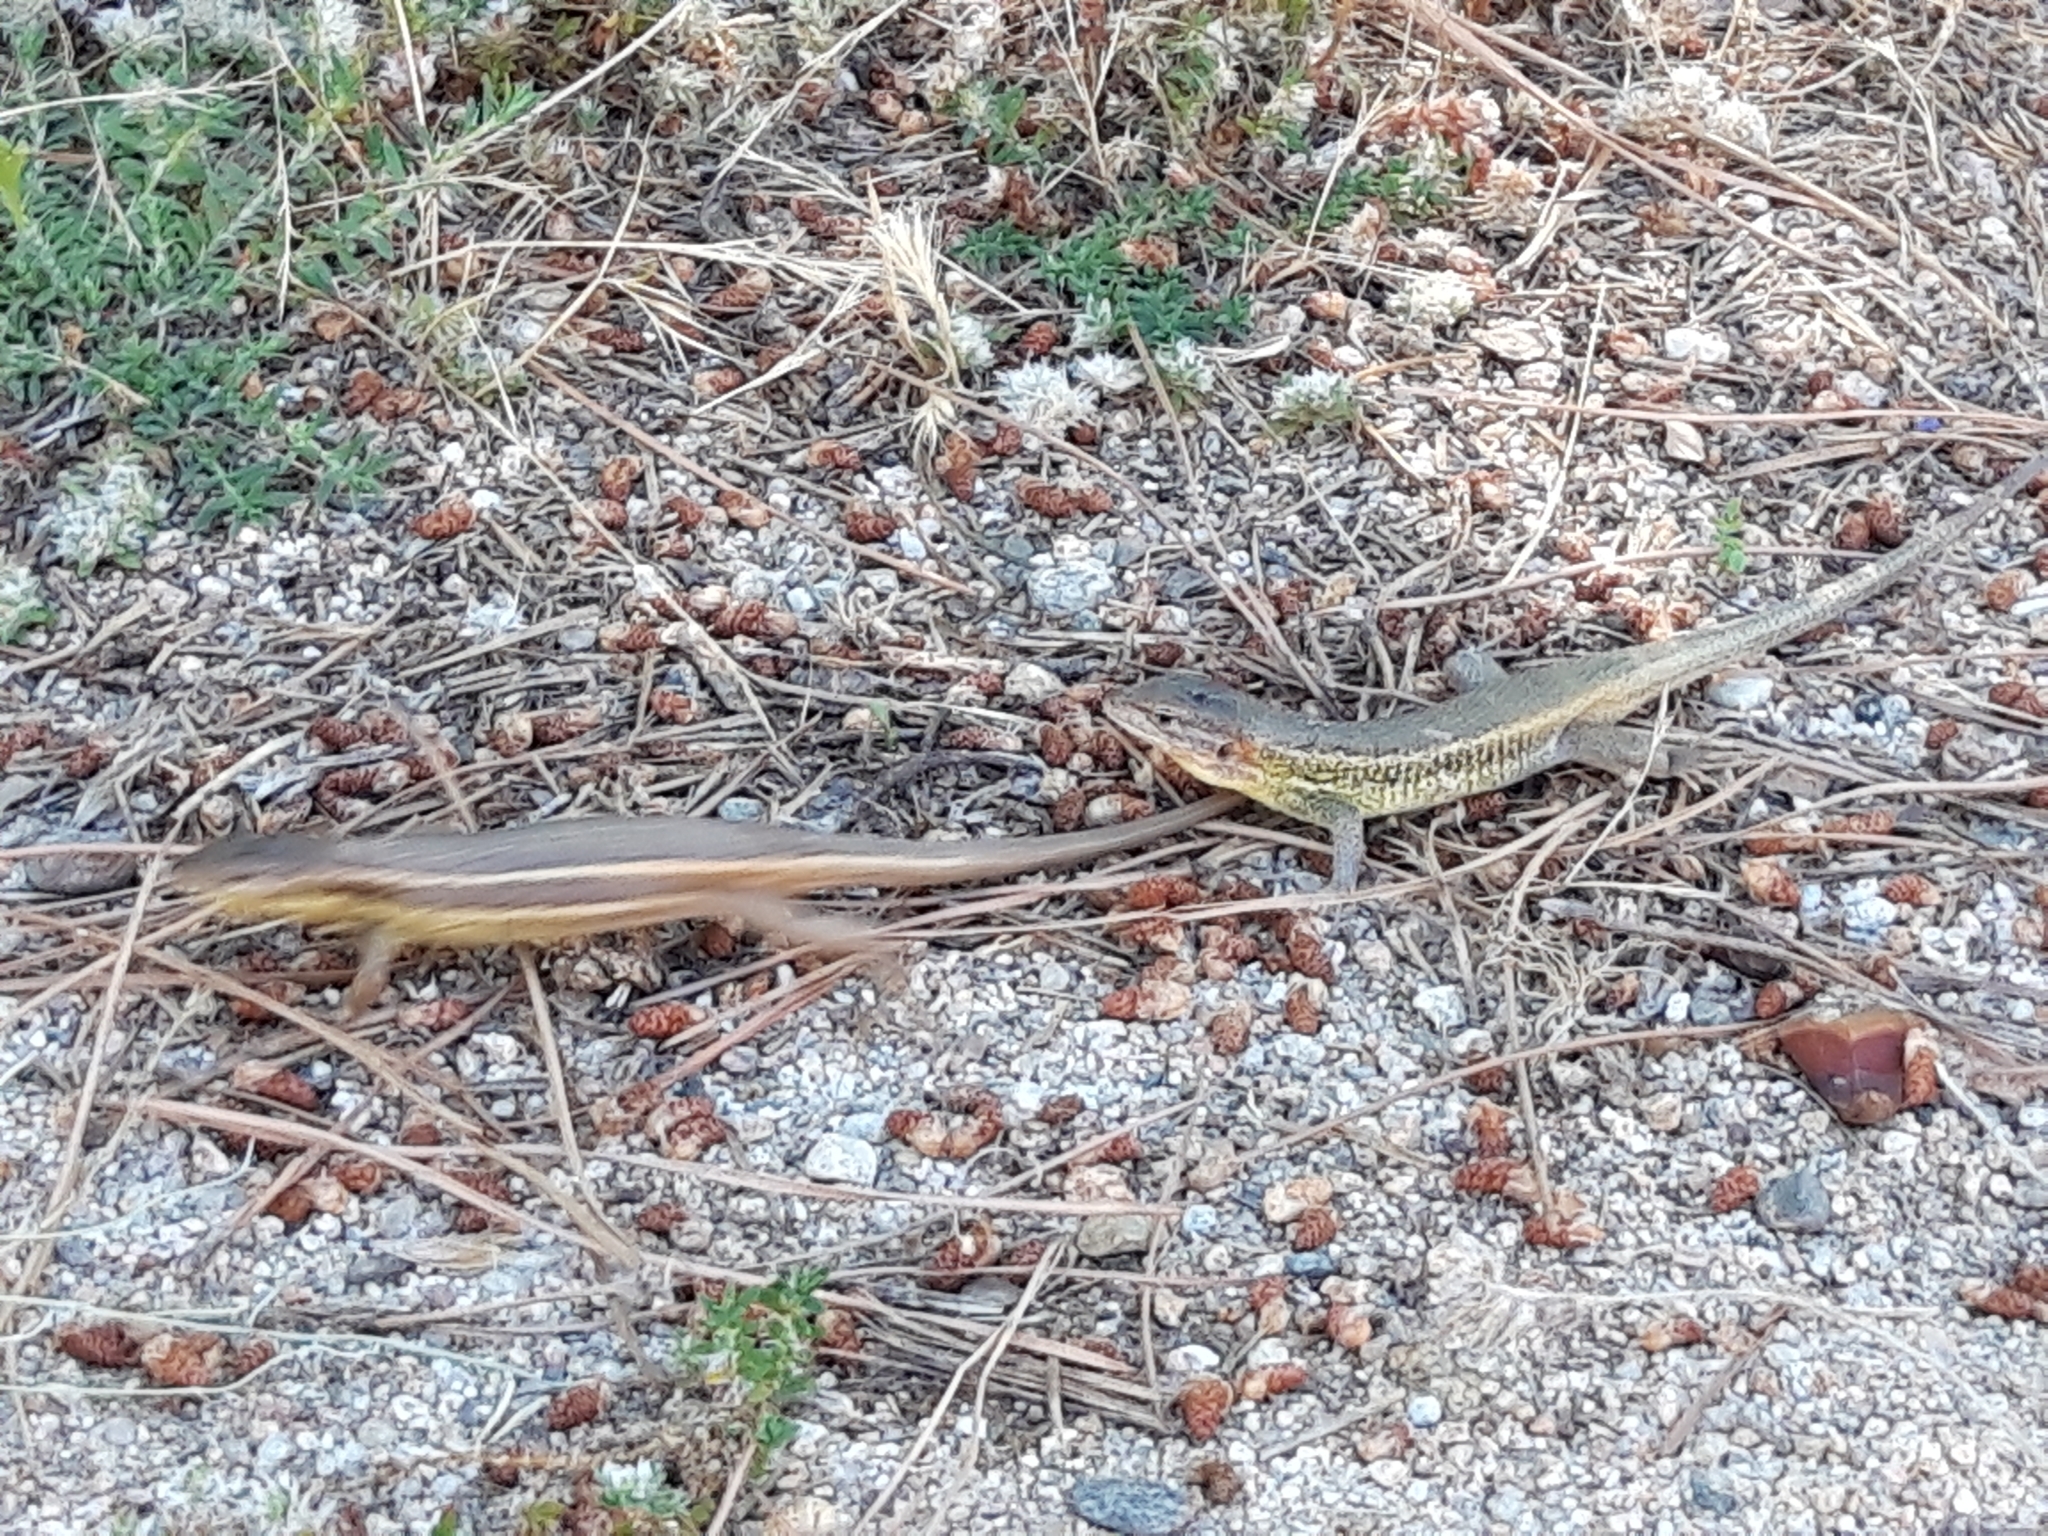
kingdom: Animalia
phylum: Chordata
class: Squamata
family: Lacertidae
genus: Psammodromus
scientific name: Psammodromus algirus
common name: Algerian psammodromus
